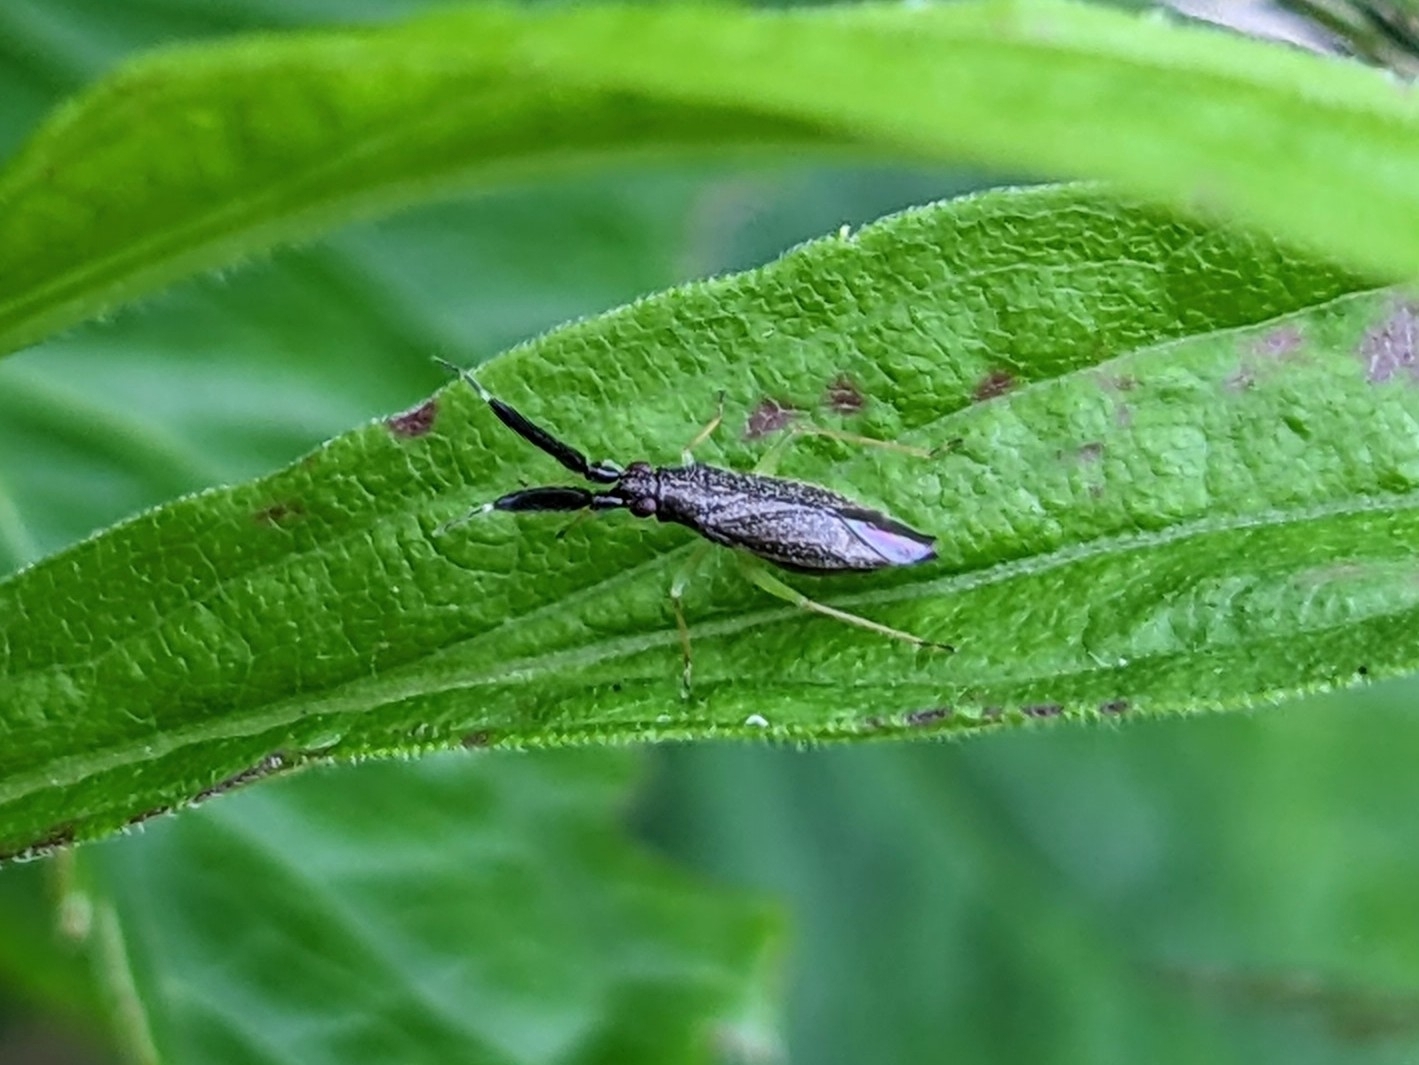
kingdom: Animalia
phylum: Arthropoda
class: Insecta
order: Hemiptera
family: Miridae
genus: Heterotoma
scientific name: Heterotoma planicornis
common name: Plant bug
